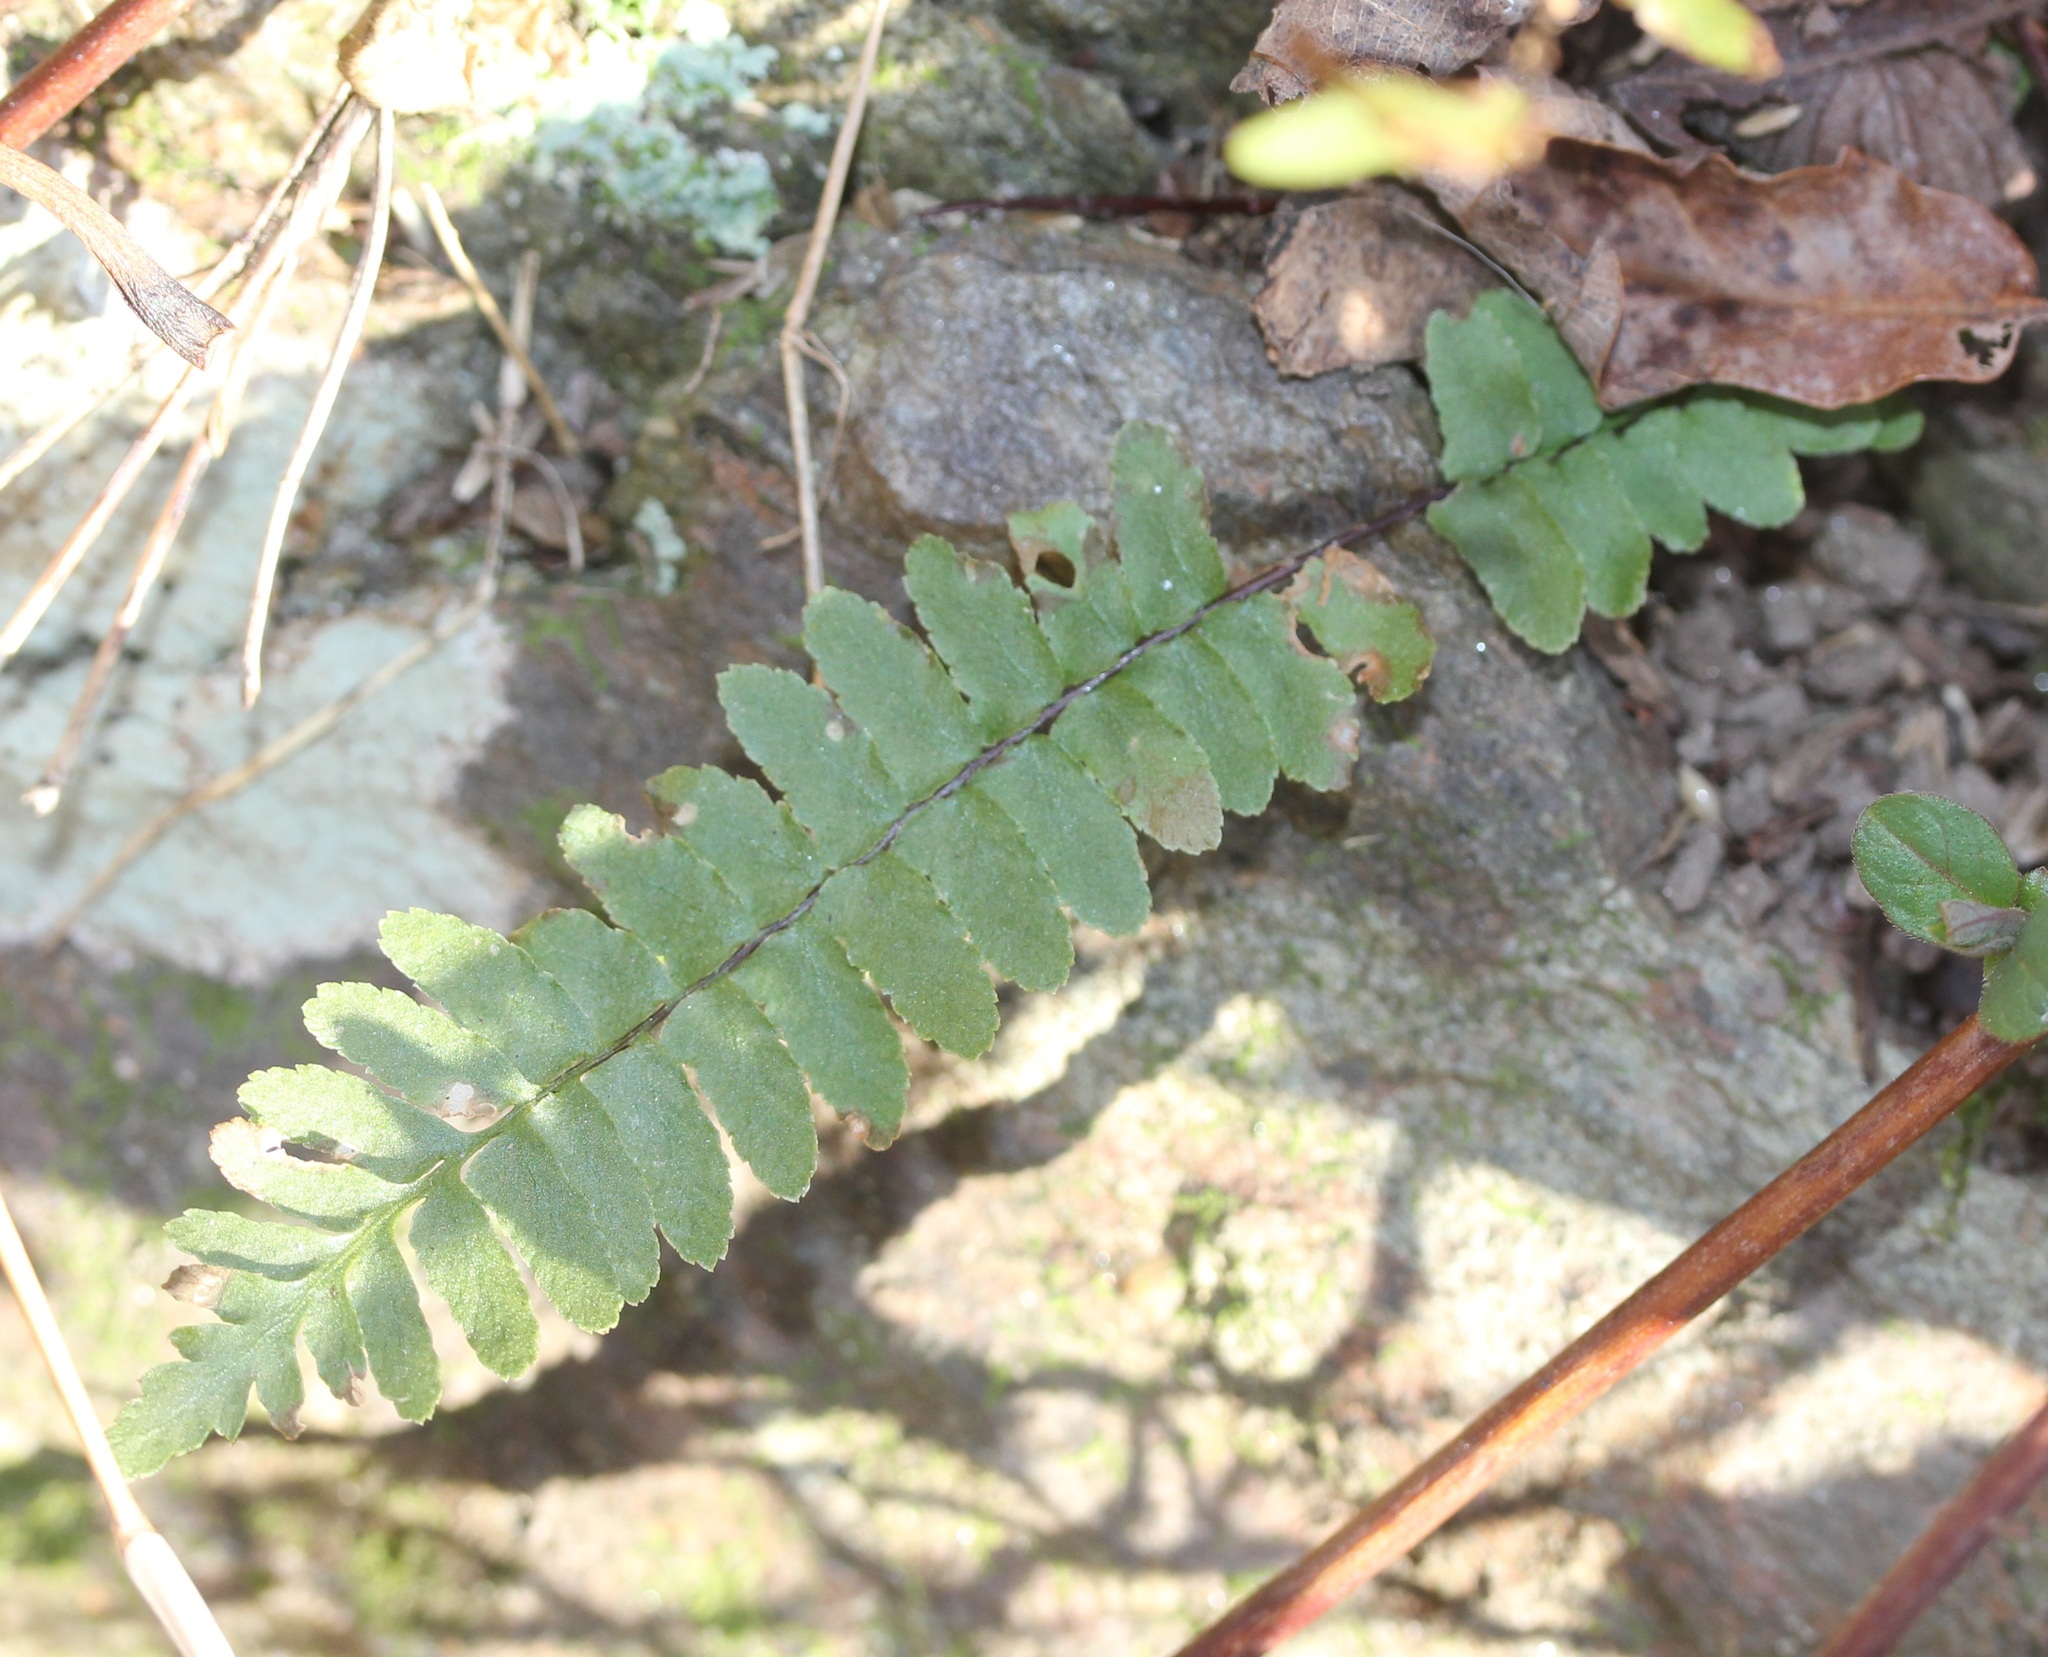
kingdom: Plantae
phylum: Tracheophyta
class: Polypodiopsida
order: Polypodiales
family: Aspleniaceae
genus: Asplenium
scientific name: Asplenium platyneuron
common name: Ebony spleenwort
